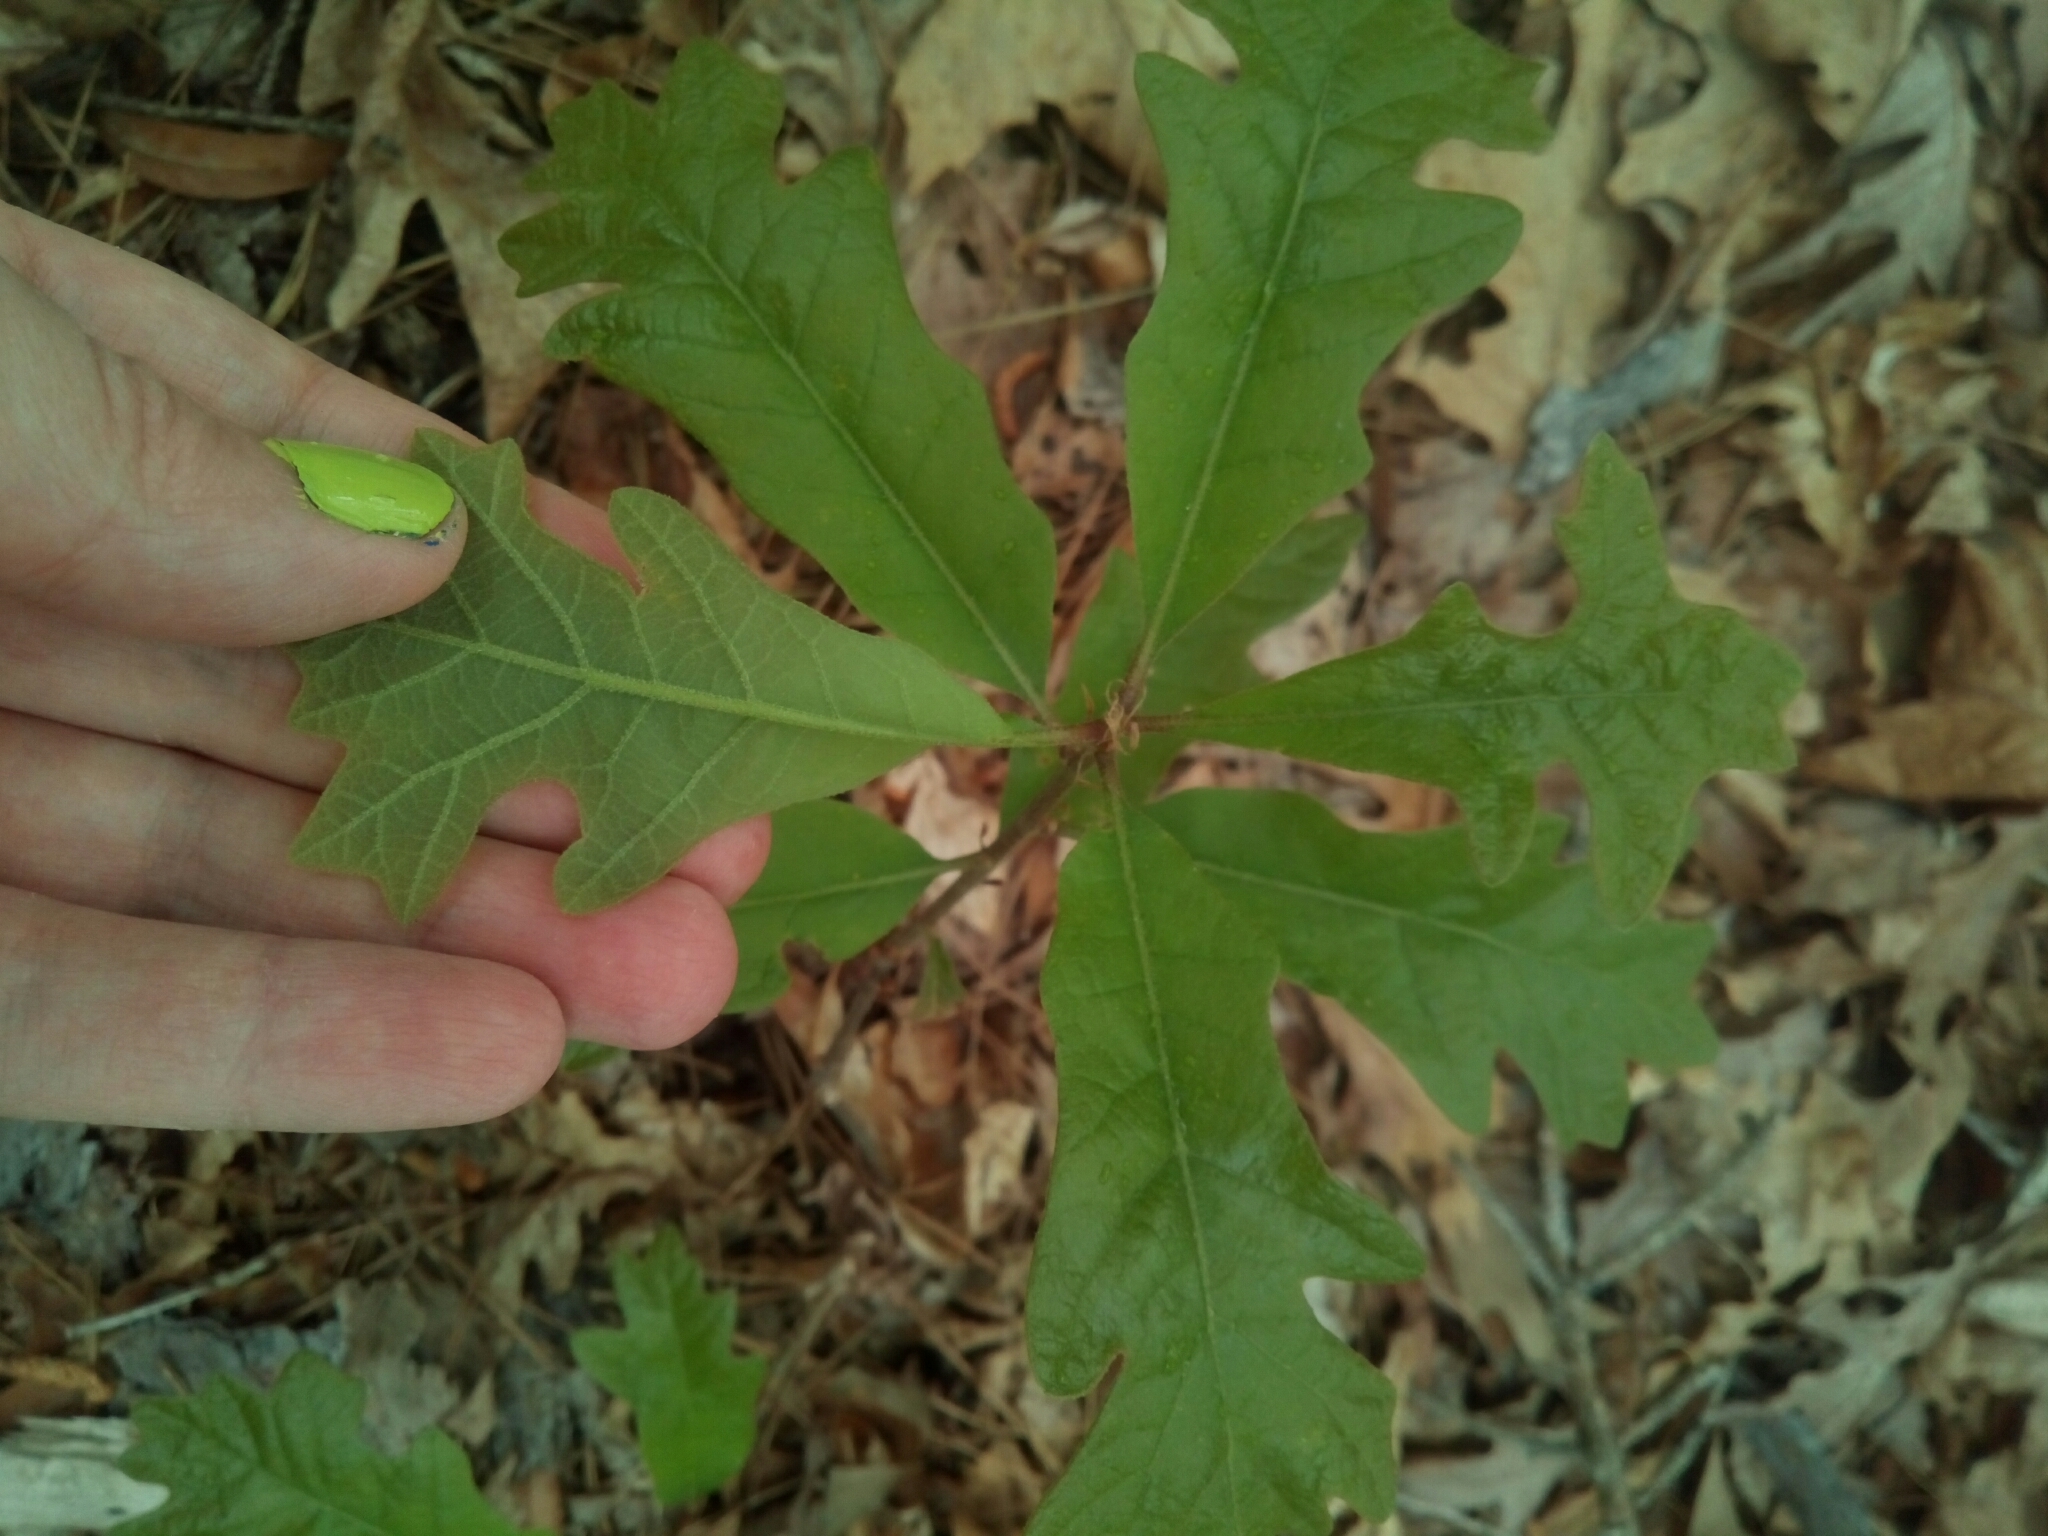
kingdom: Plantae
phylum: Tracheophyta
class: Magnoliopsida
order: Fagales
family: Fagaceae
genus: Quercus
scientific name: Quercus stellata
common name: Post oak
